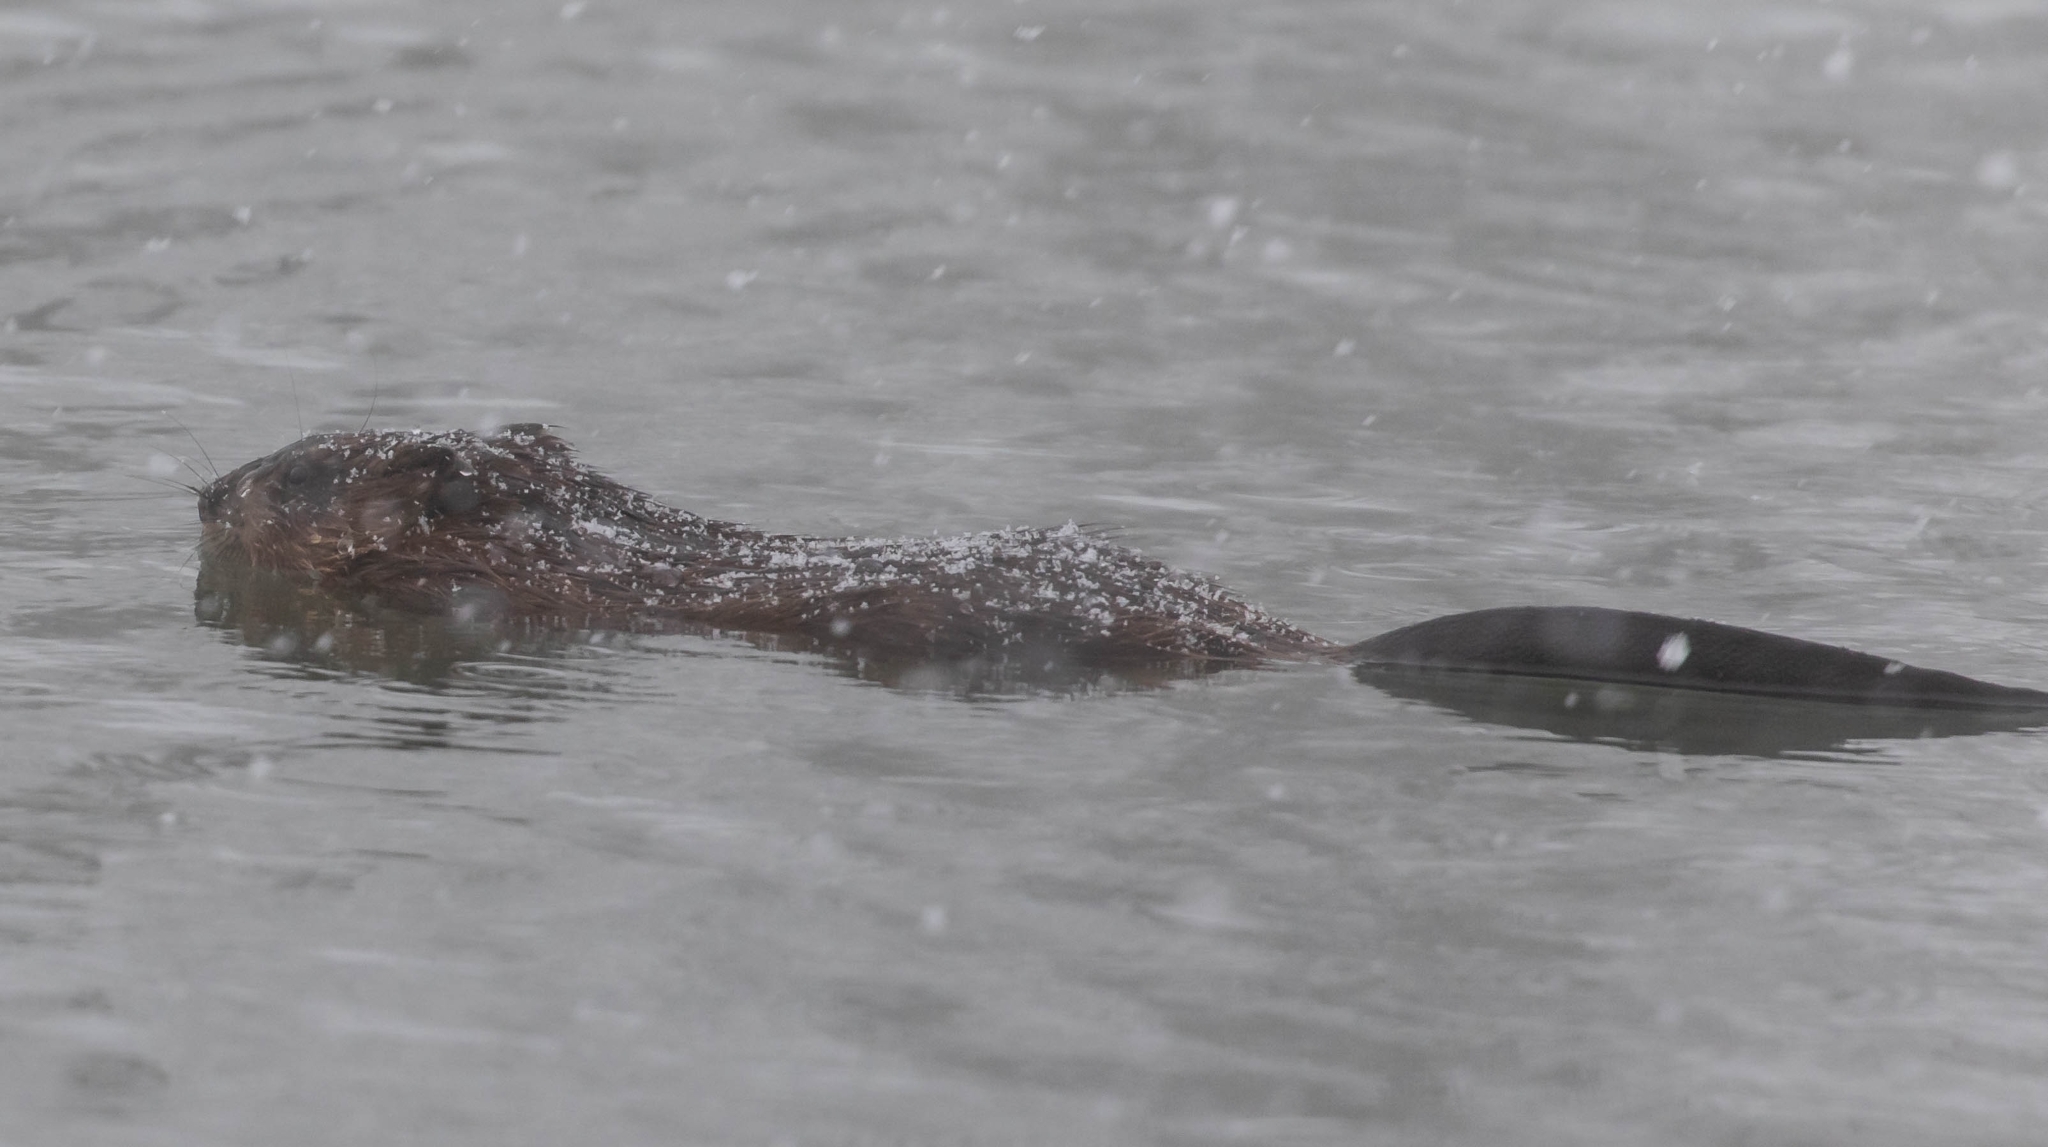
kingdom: Animalia
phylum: Chordata
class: Mammalia
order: Rodentia
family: Cricetidae
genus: Ondatra
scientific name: Ondatra zibethicus
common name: Muskrat
